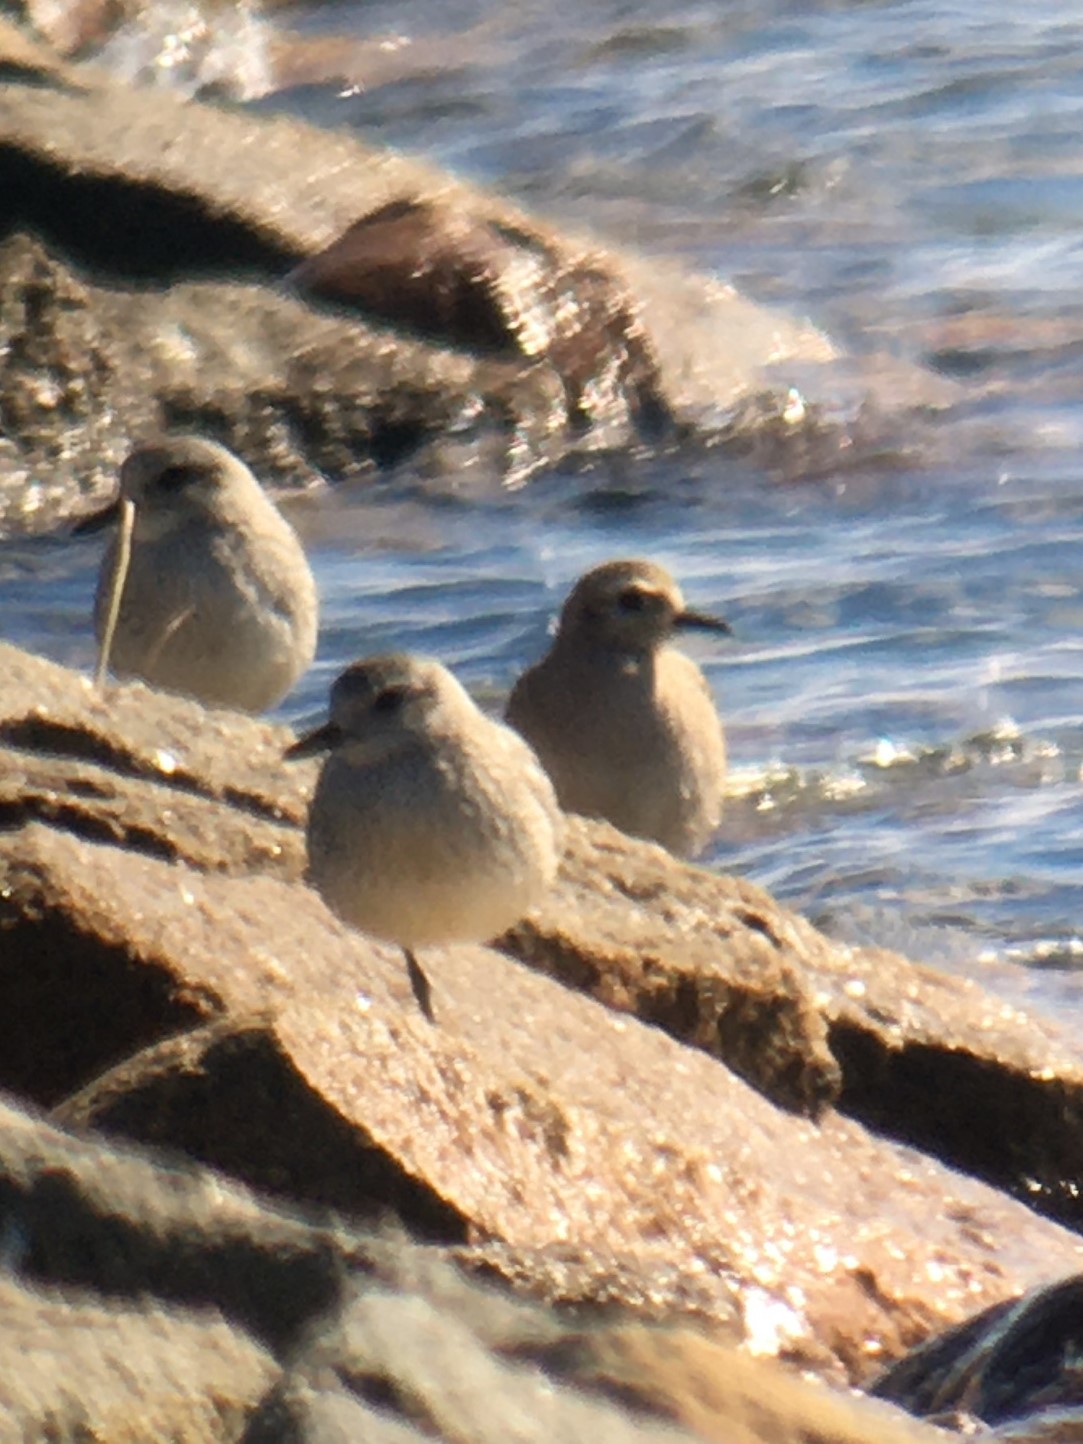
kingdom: Animalia
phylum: Chordata
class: Aves
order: Charadriiformes
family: Charadriidae
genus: Pluvialis
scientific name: Pluvialis dominica
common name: American golden plover
